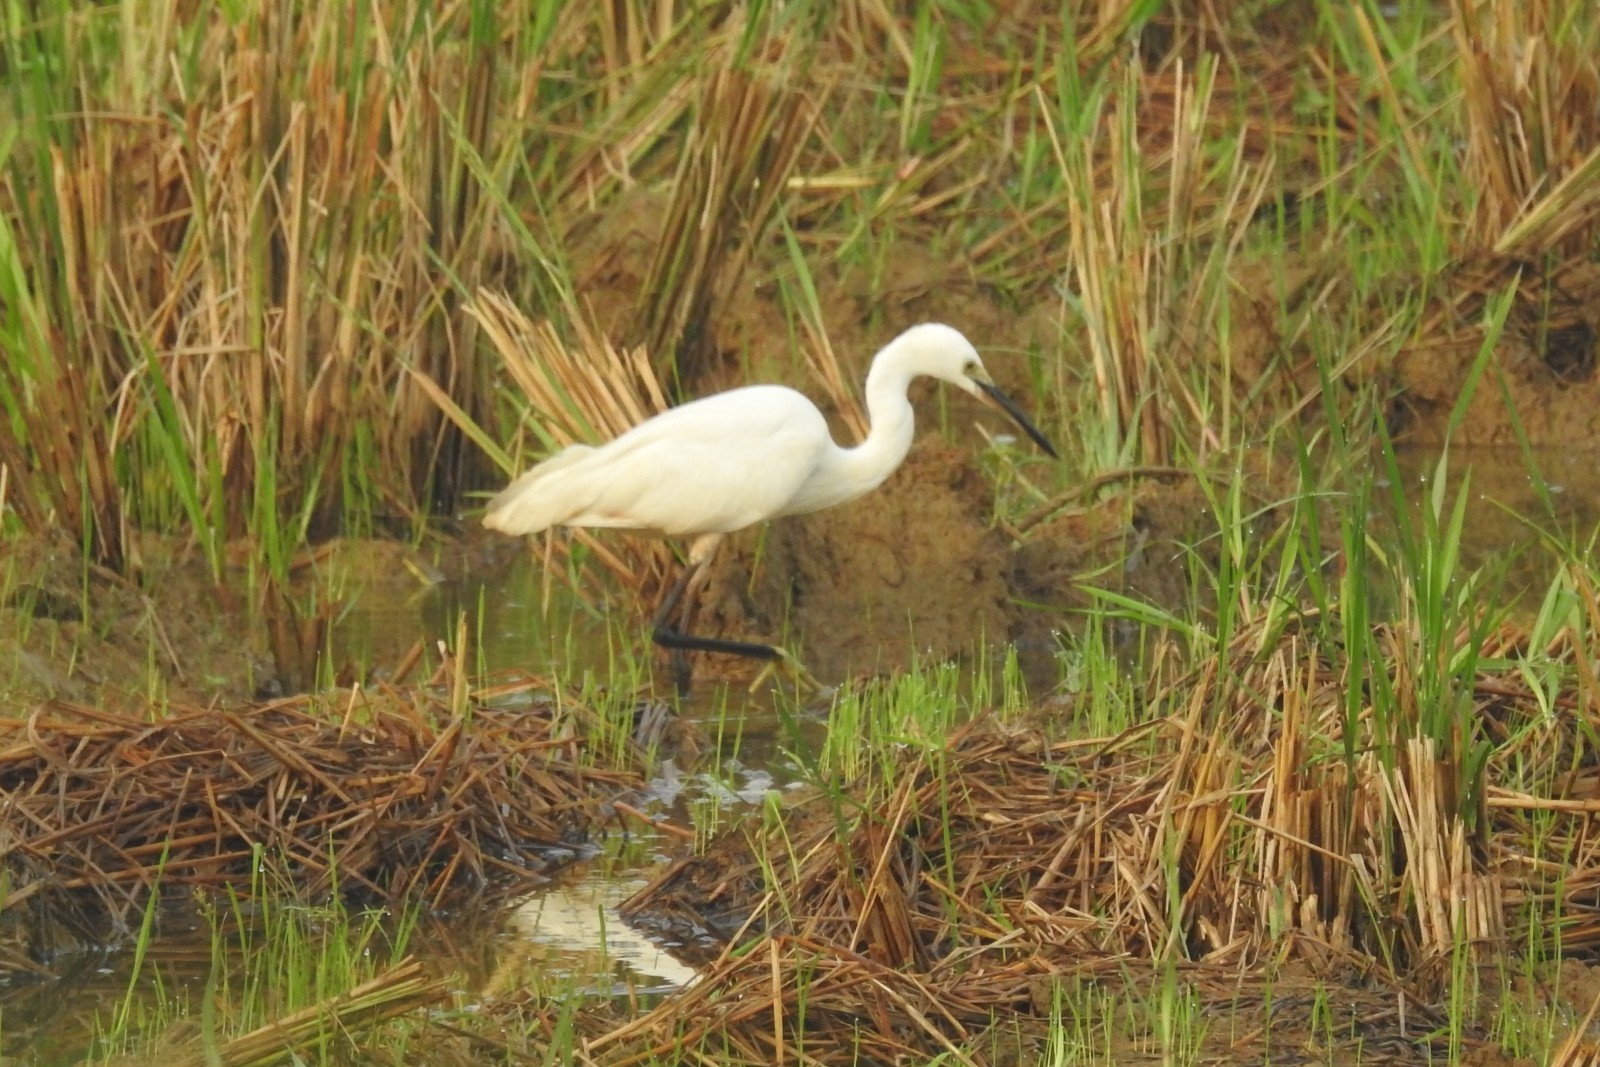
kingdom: Animalia
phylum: Chordata
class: Aves
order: Pelecaniformes
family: Ardeidae
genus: Egretta
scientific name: Egretta garzetta
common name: Little egret
